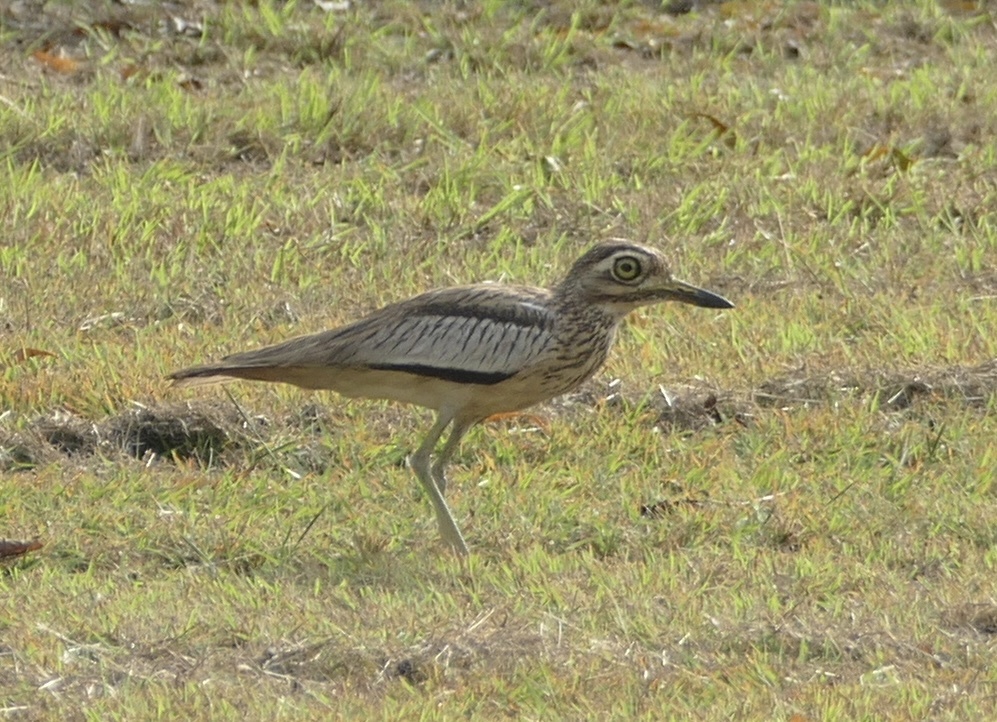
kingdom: Animalia
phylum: Chordata
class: Aves
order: Charadriiformes
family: Burhinidae
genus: Burhinus
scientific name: Burhinus senegalensis
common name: Senegal thick-knee
